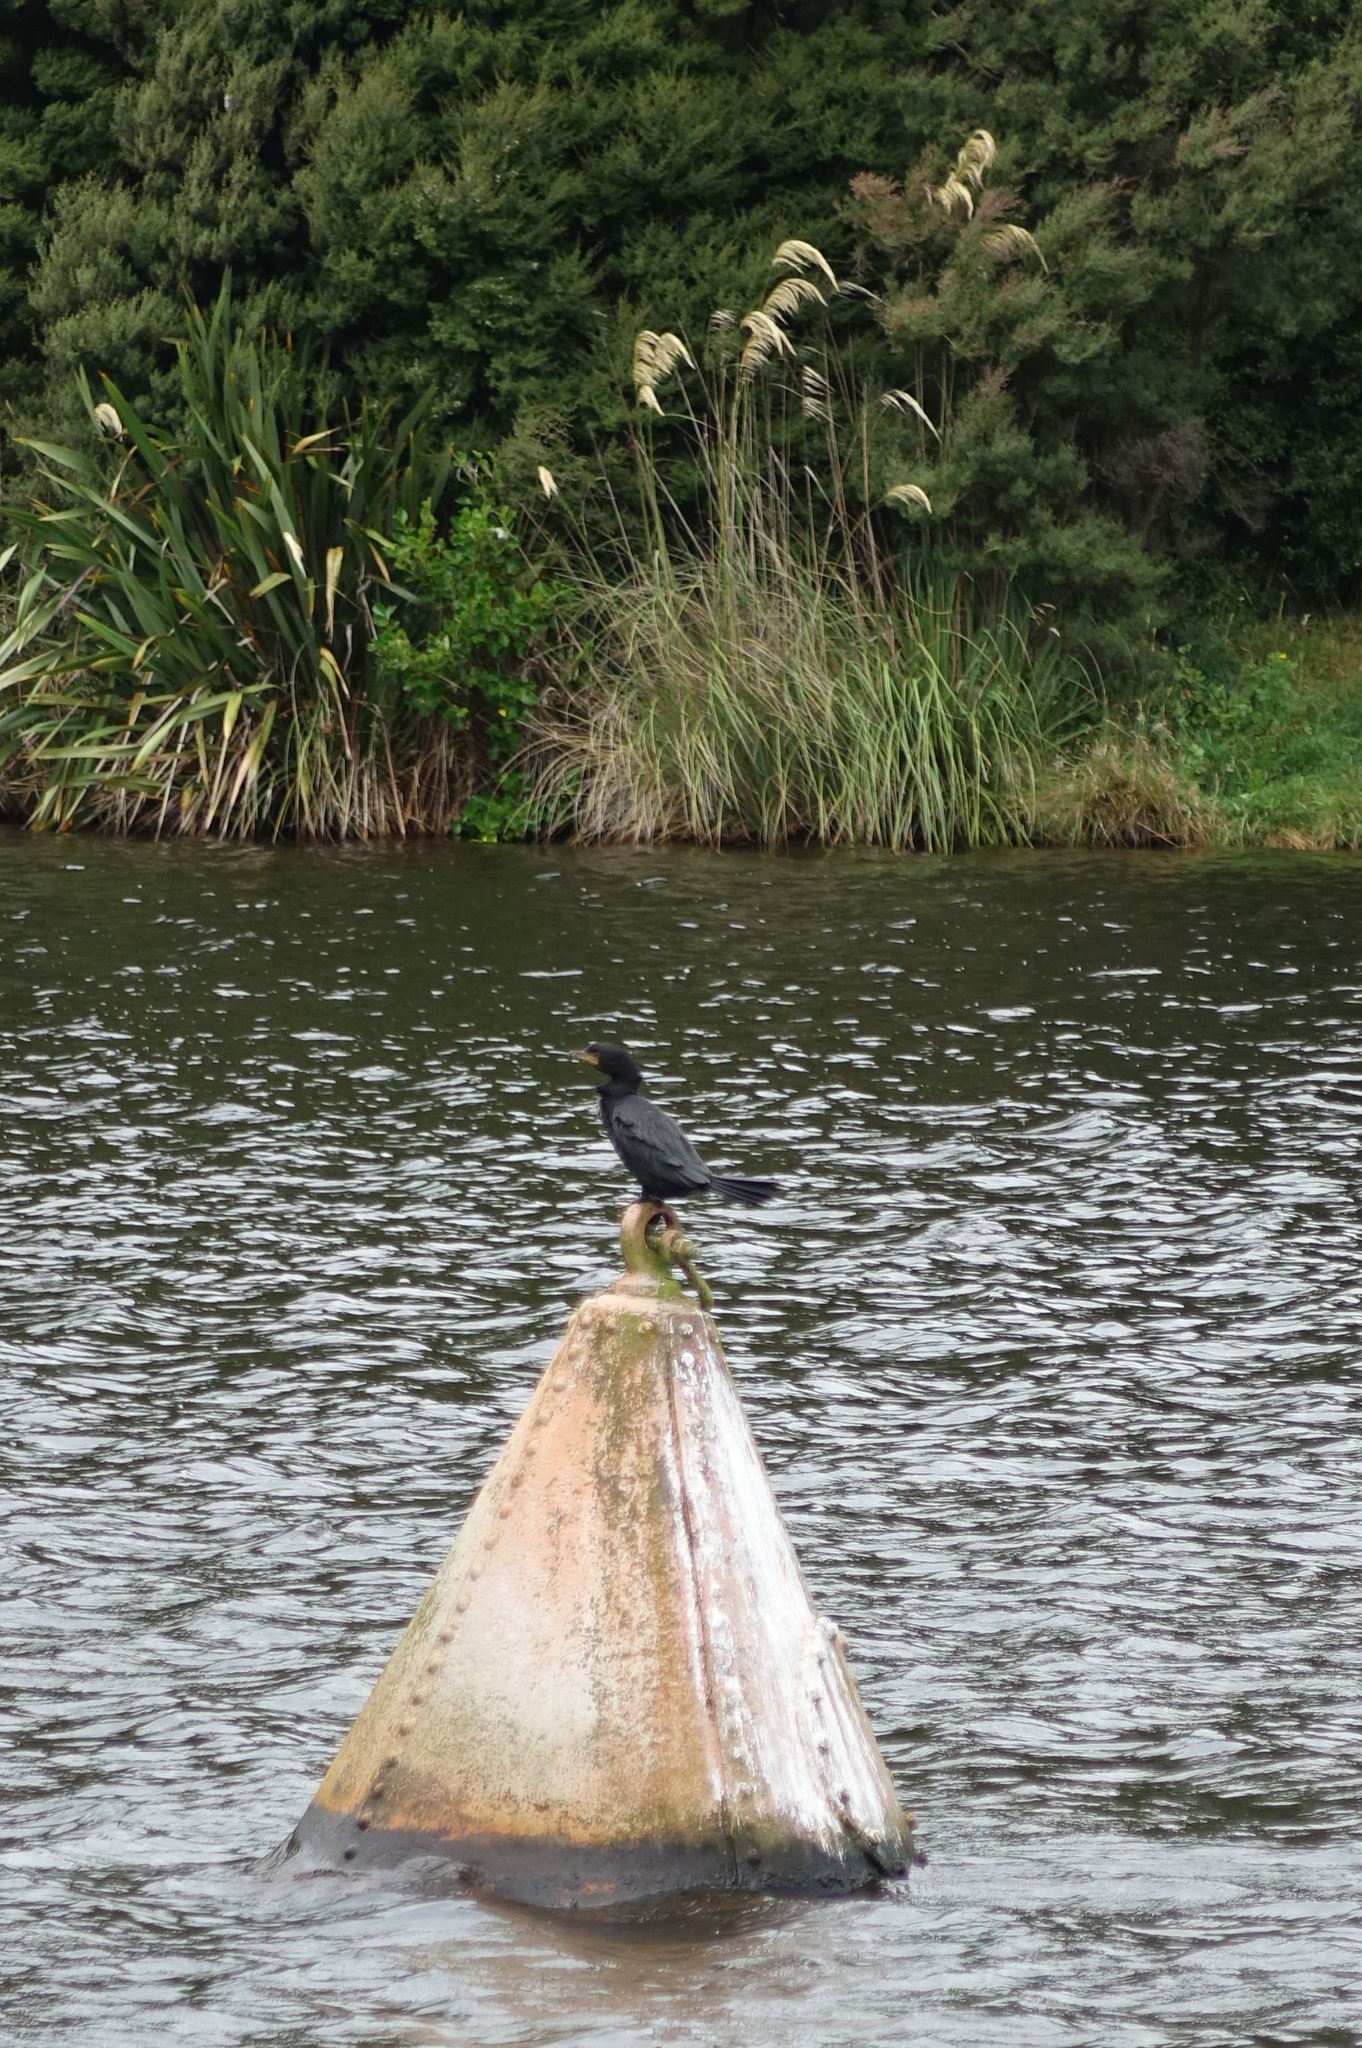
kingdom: Animalia
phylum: Chordata
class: Aves
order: Suliformes
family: Phalacrocoracidae
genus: Microcarbo
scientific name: Microcarbo melanoleucos
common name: Little pied cormorant
